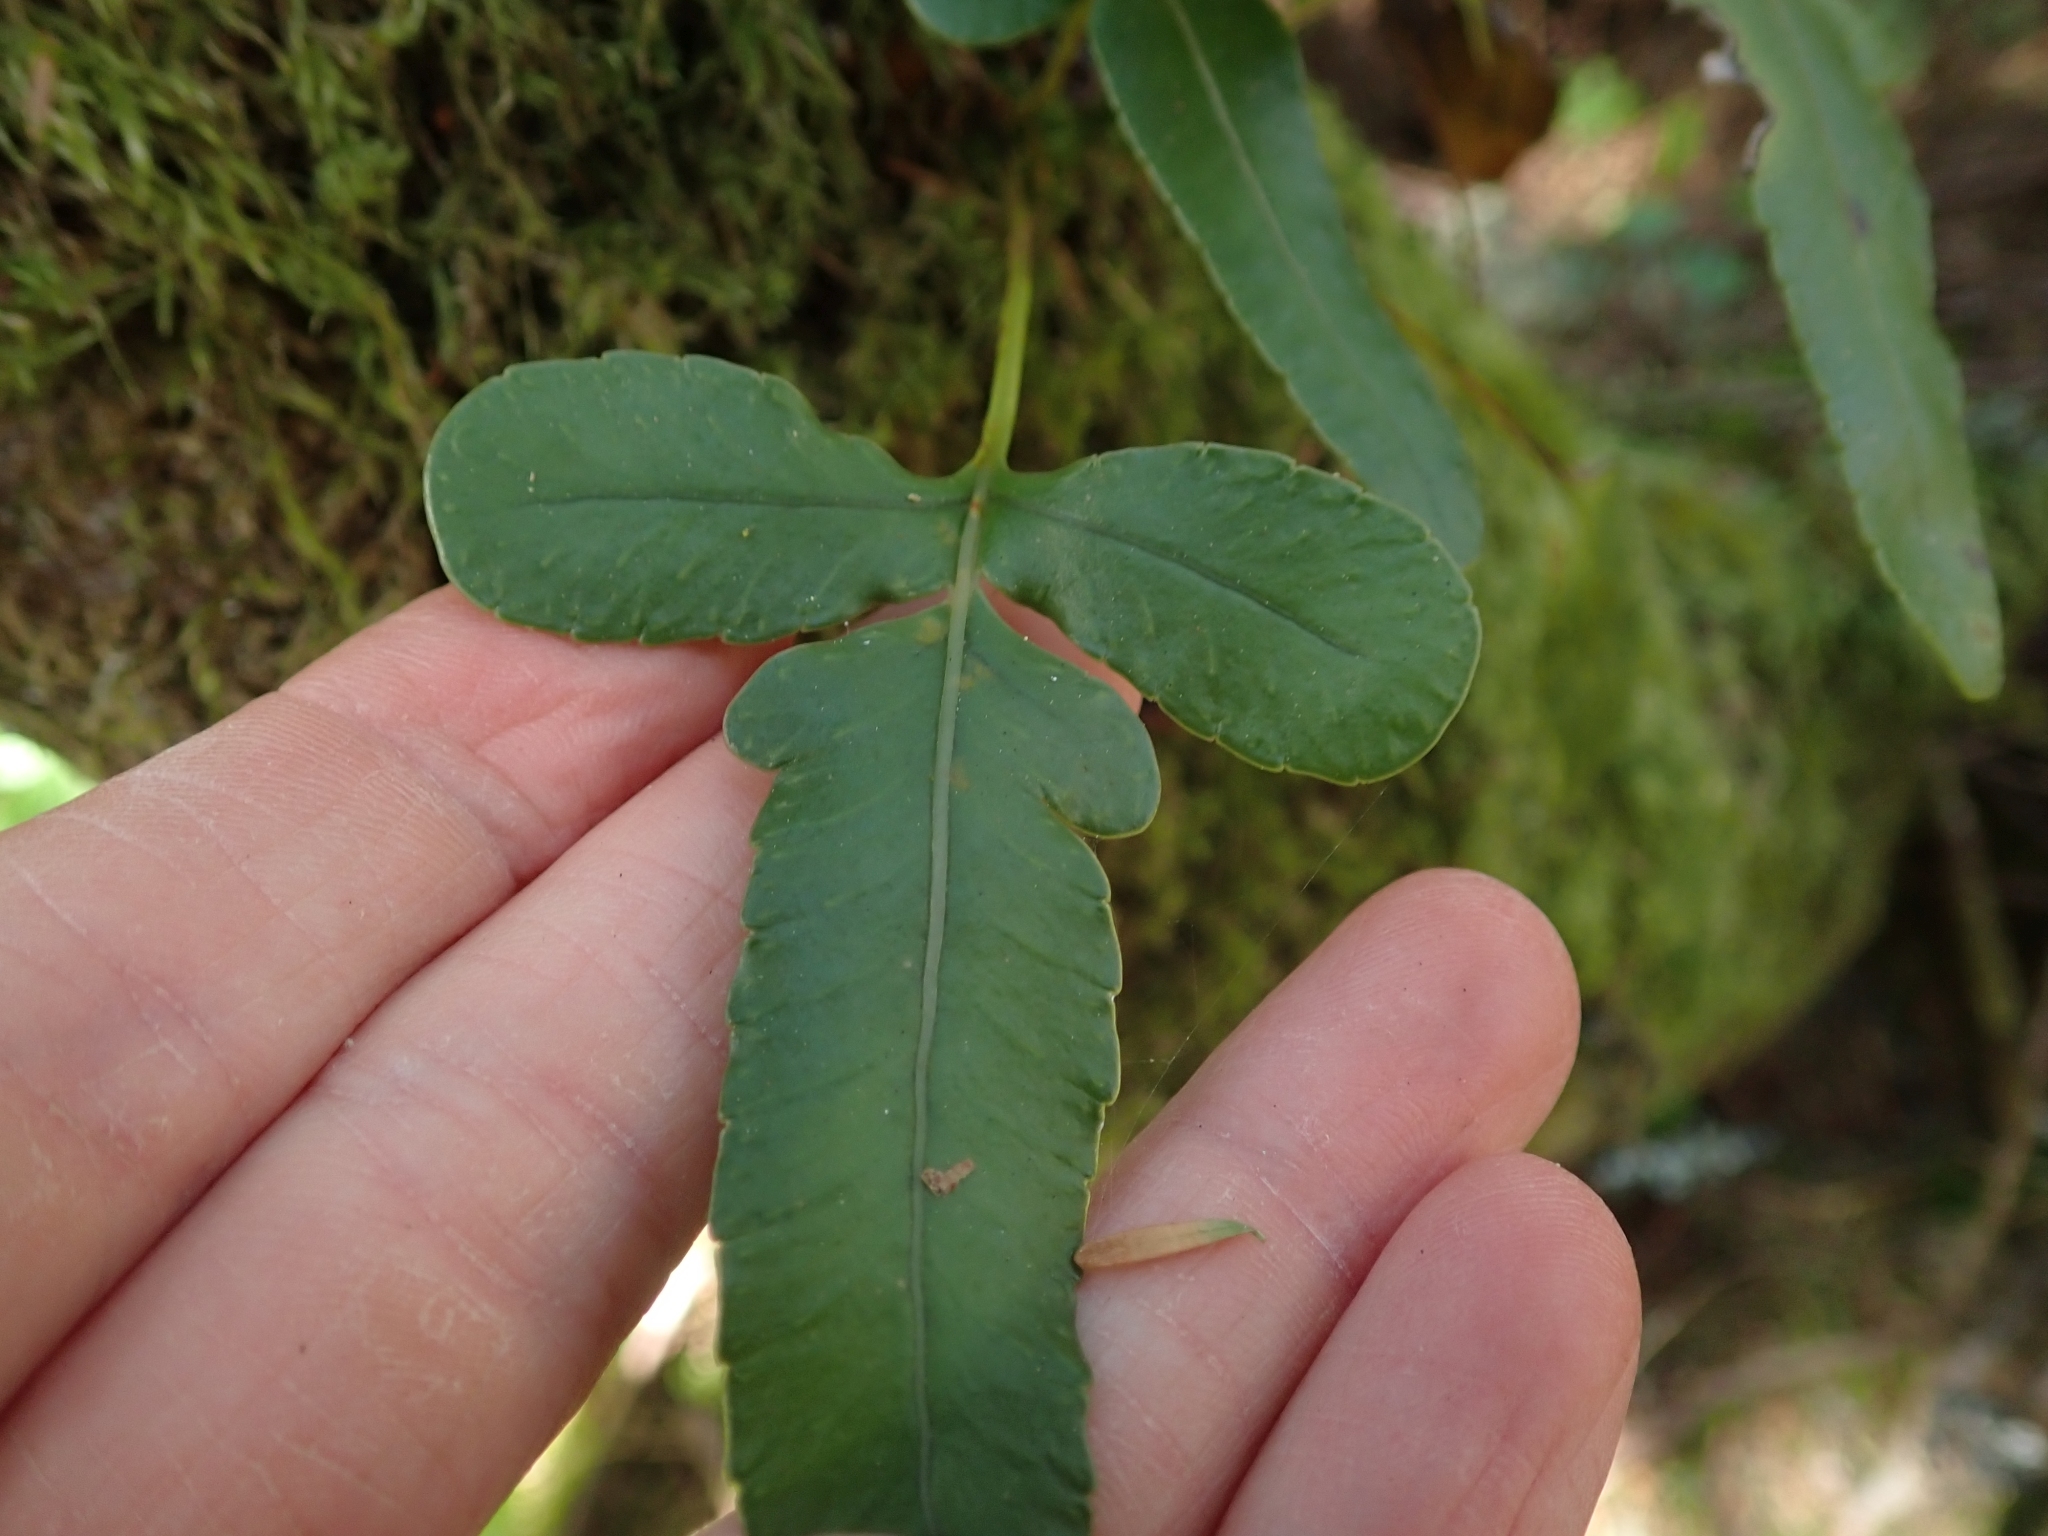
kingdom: Plantae
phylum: Tracheophyta
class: Polypodiopsida
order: Polypodiales
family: Polypodiaceae
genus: Polypodium
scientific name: Polypodium scouleri
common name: Scouler's polypody
